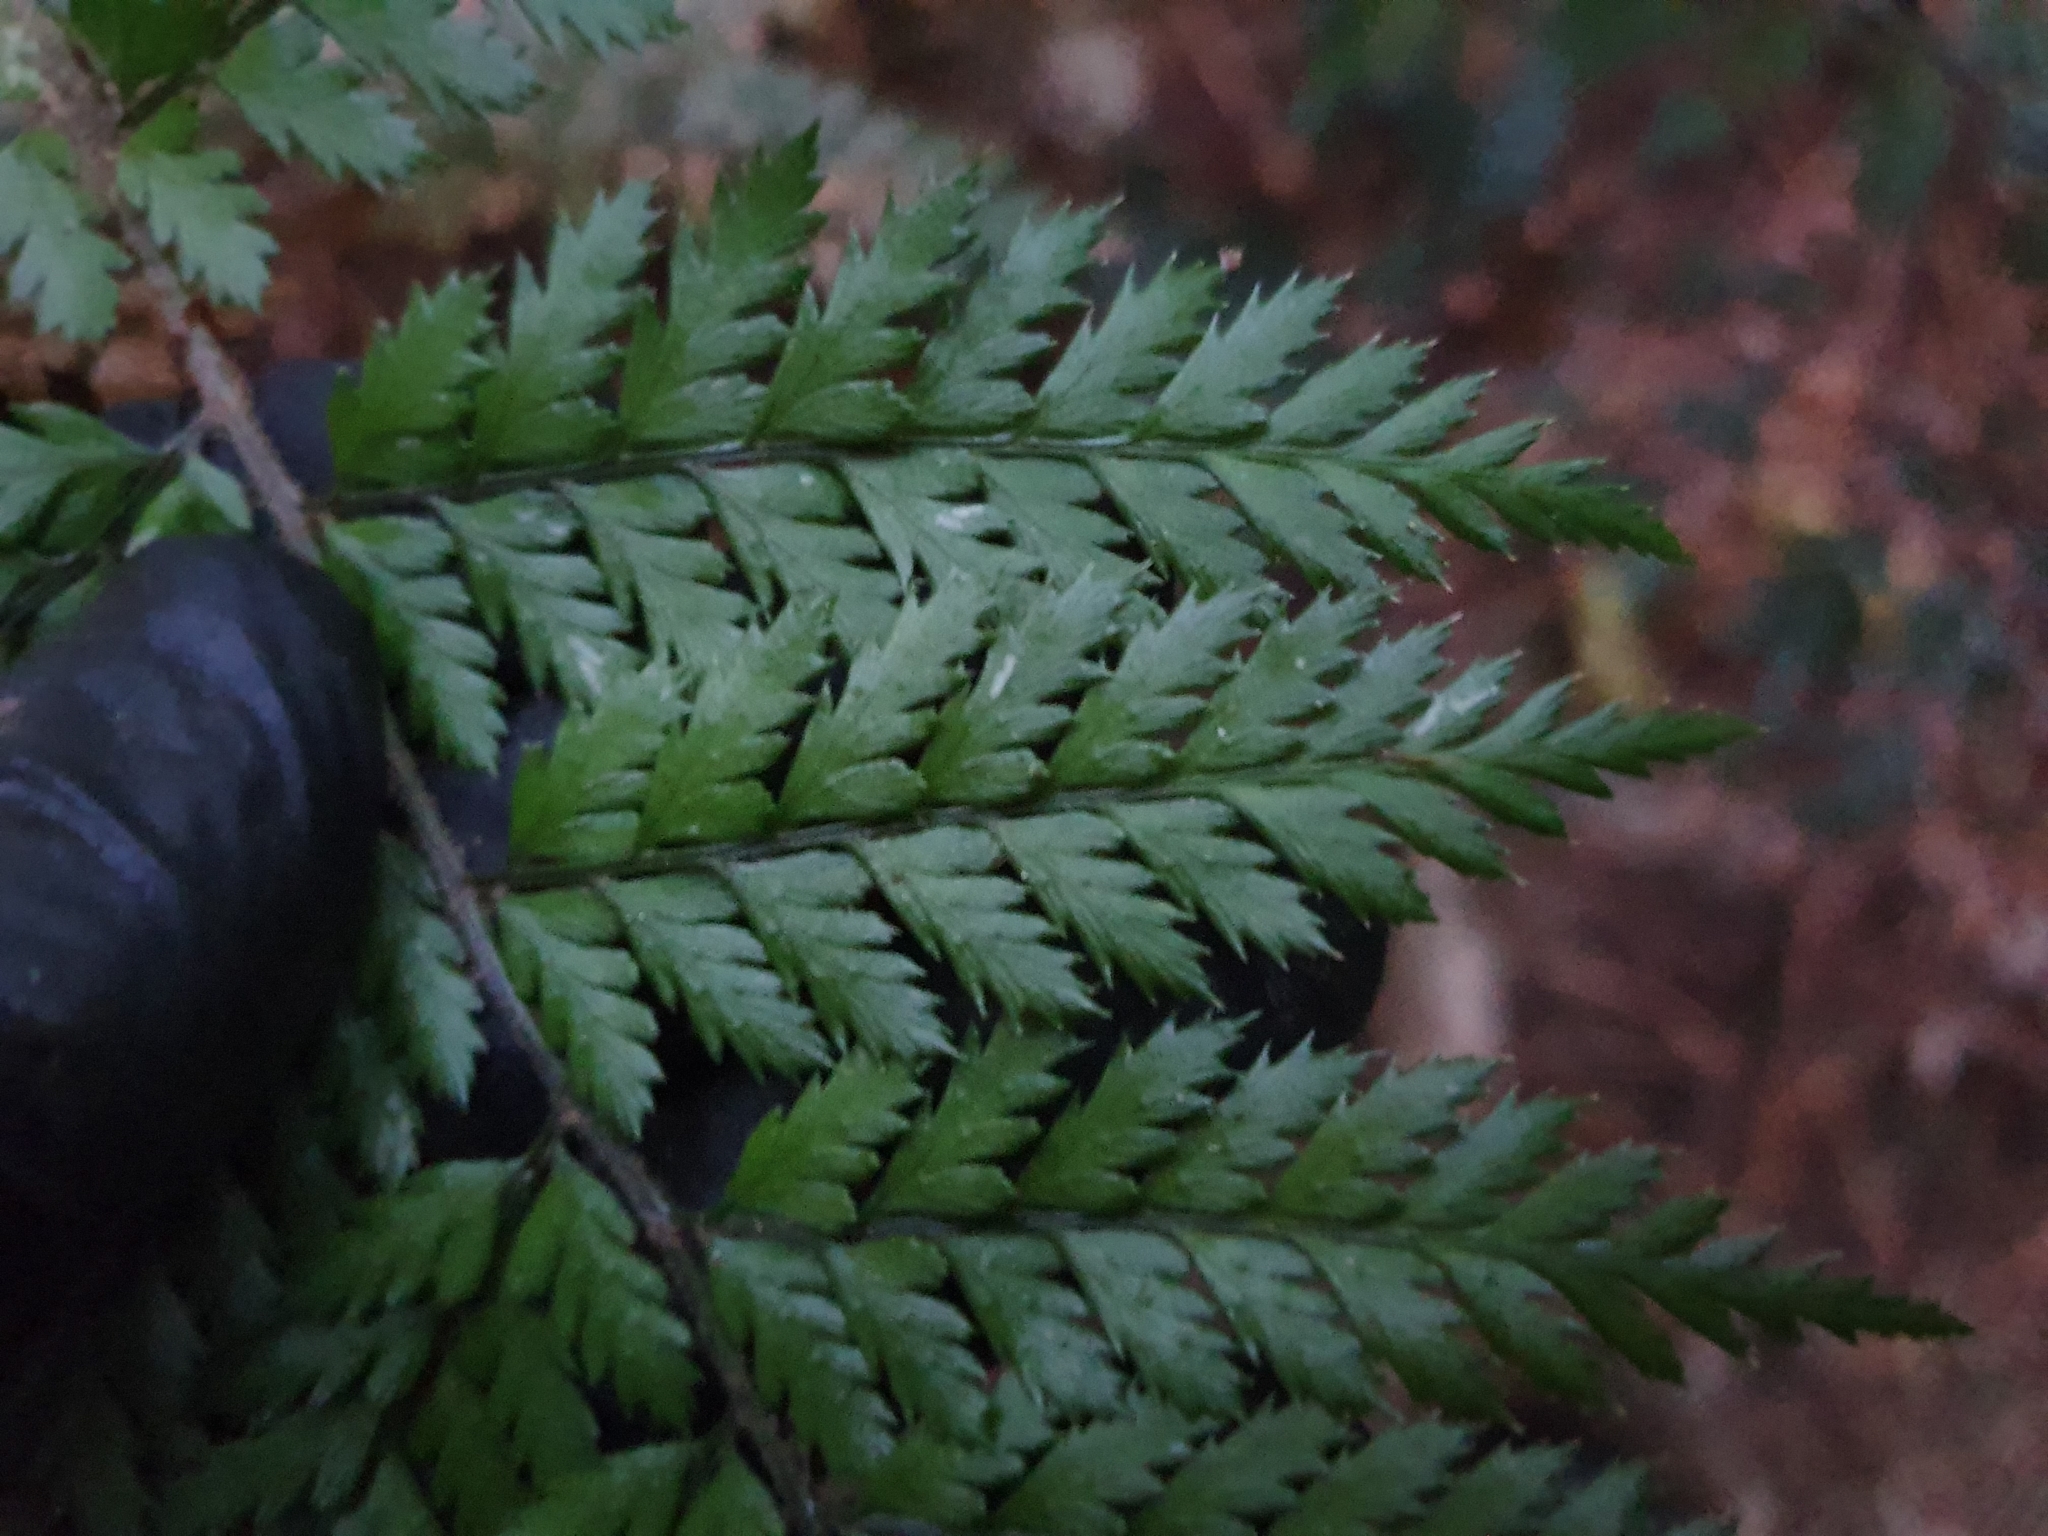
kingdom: Plantae
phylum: Tracheophyta
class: Polypodiopsida
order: Polypodiales
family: Dryopteridaceae
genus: Polystichum
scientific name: Polystichum vestitum
